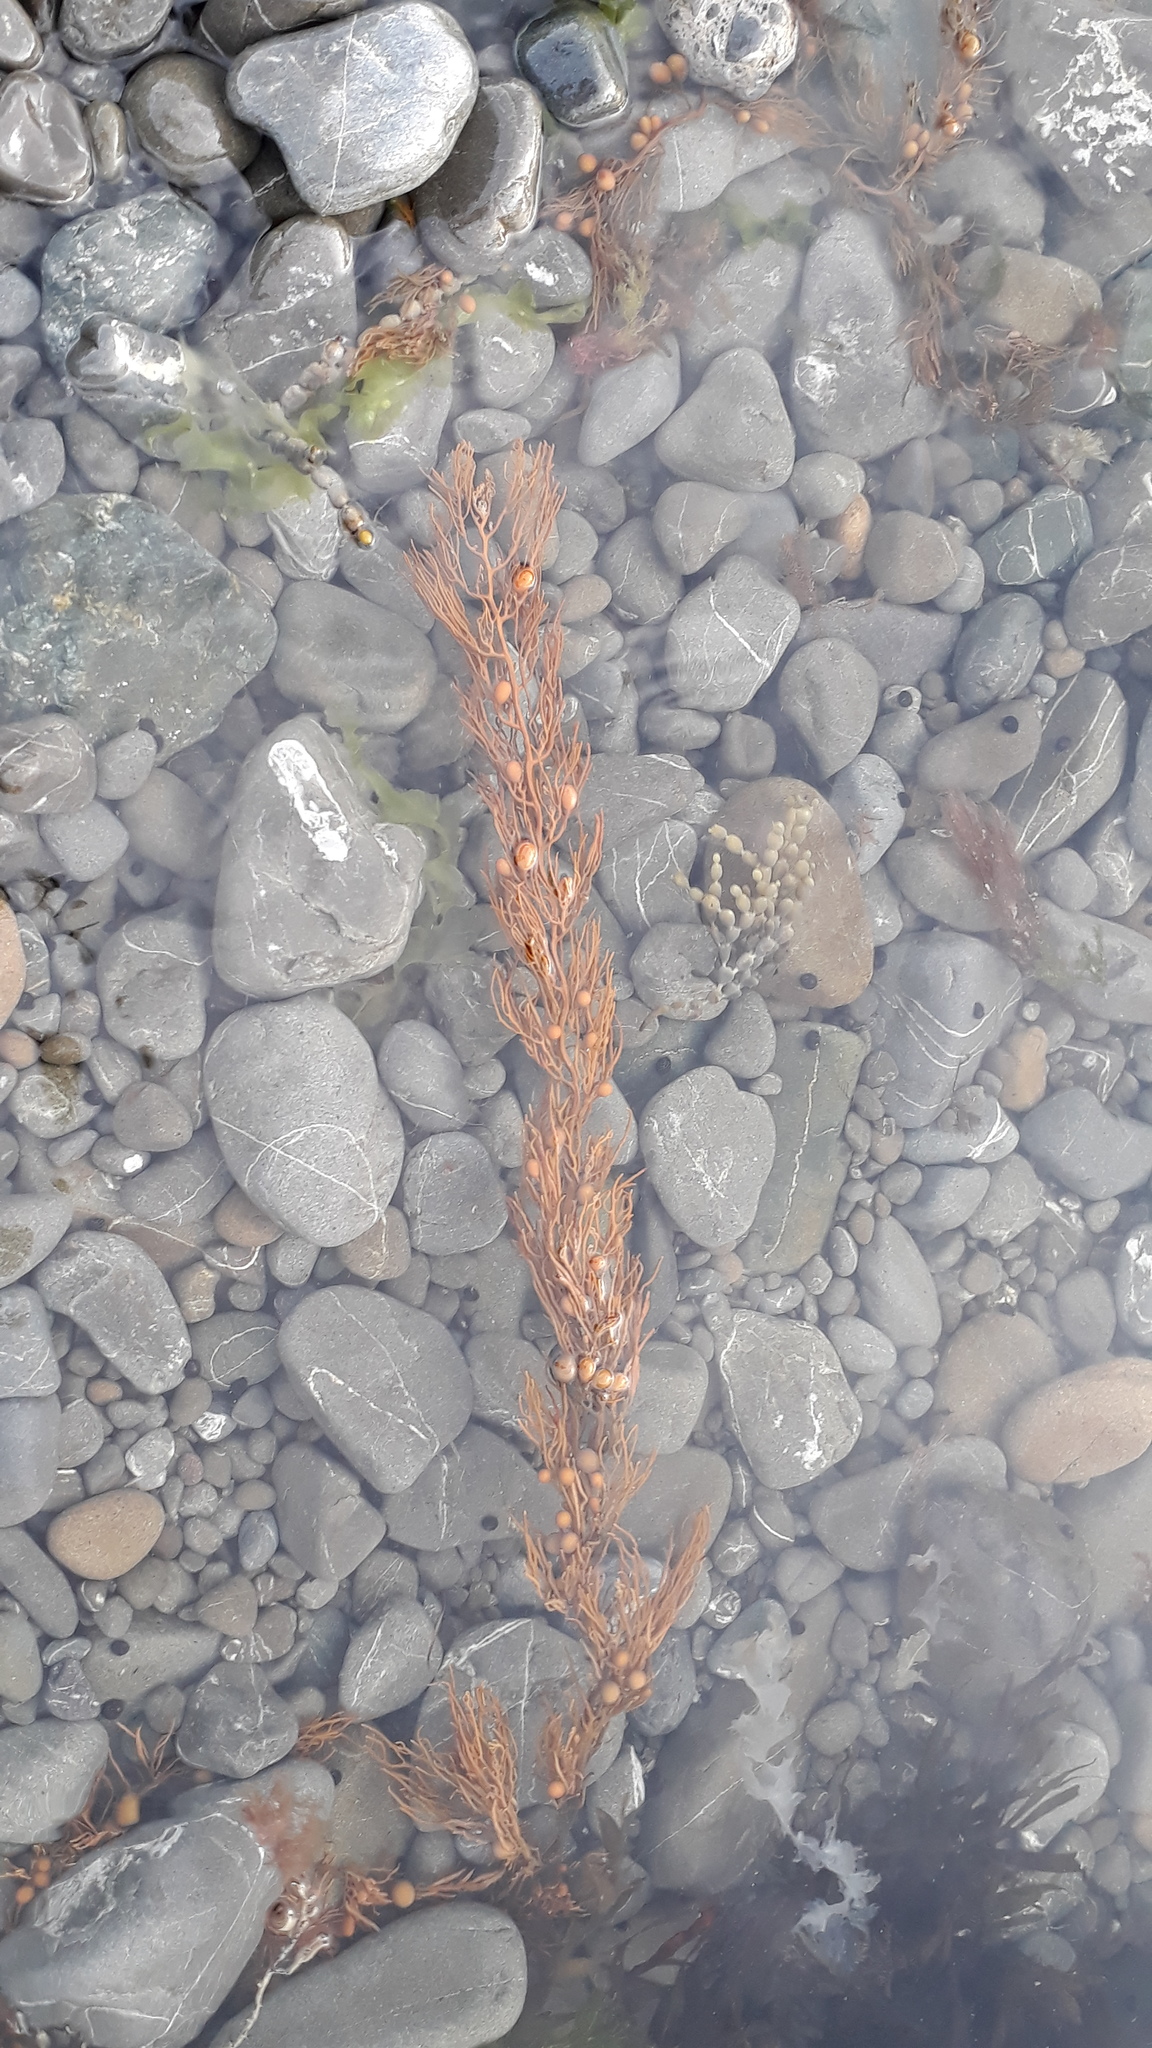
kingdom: Chromista
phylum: Ochrophyta
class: Phaeophyceae
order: Fucales
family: Sargassaceae
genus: Cystophora
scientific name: Cystophora retroflexa
